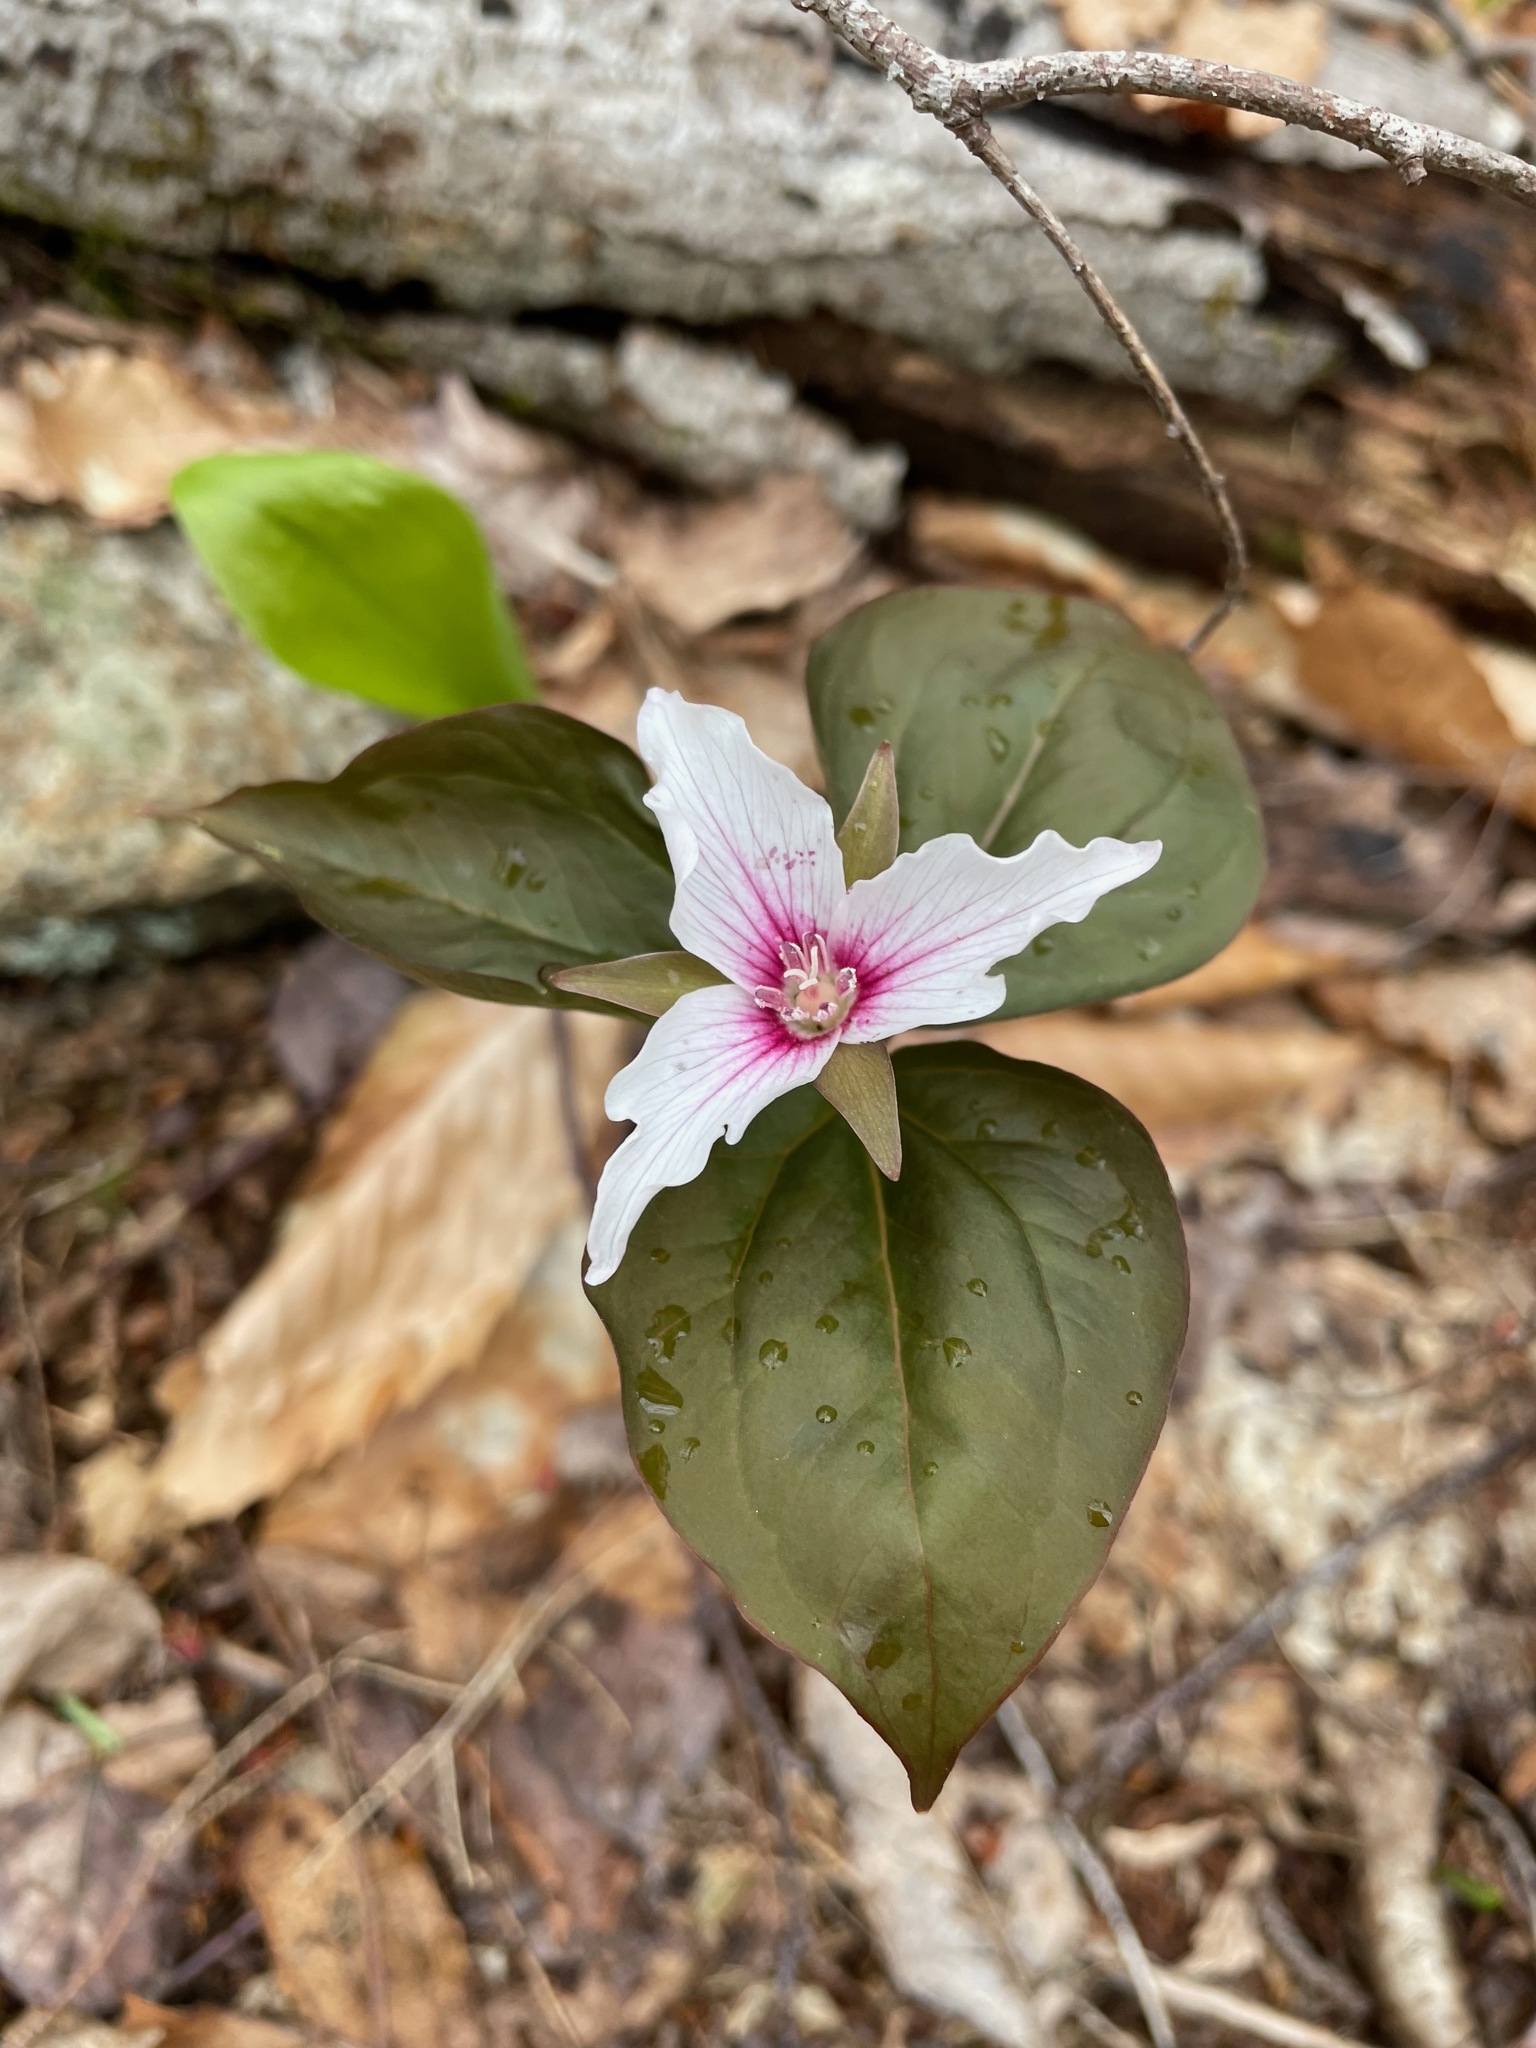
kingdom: Plantae
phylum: Tracheophyta
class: Liliopsida
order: Liliales
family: Melanthiaceae
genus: Trillium
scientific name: Trillium undulatum
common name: Paint trillium
